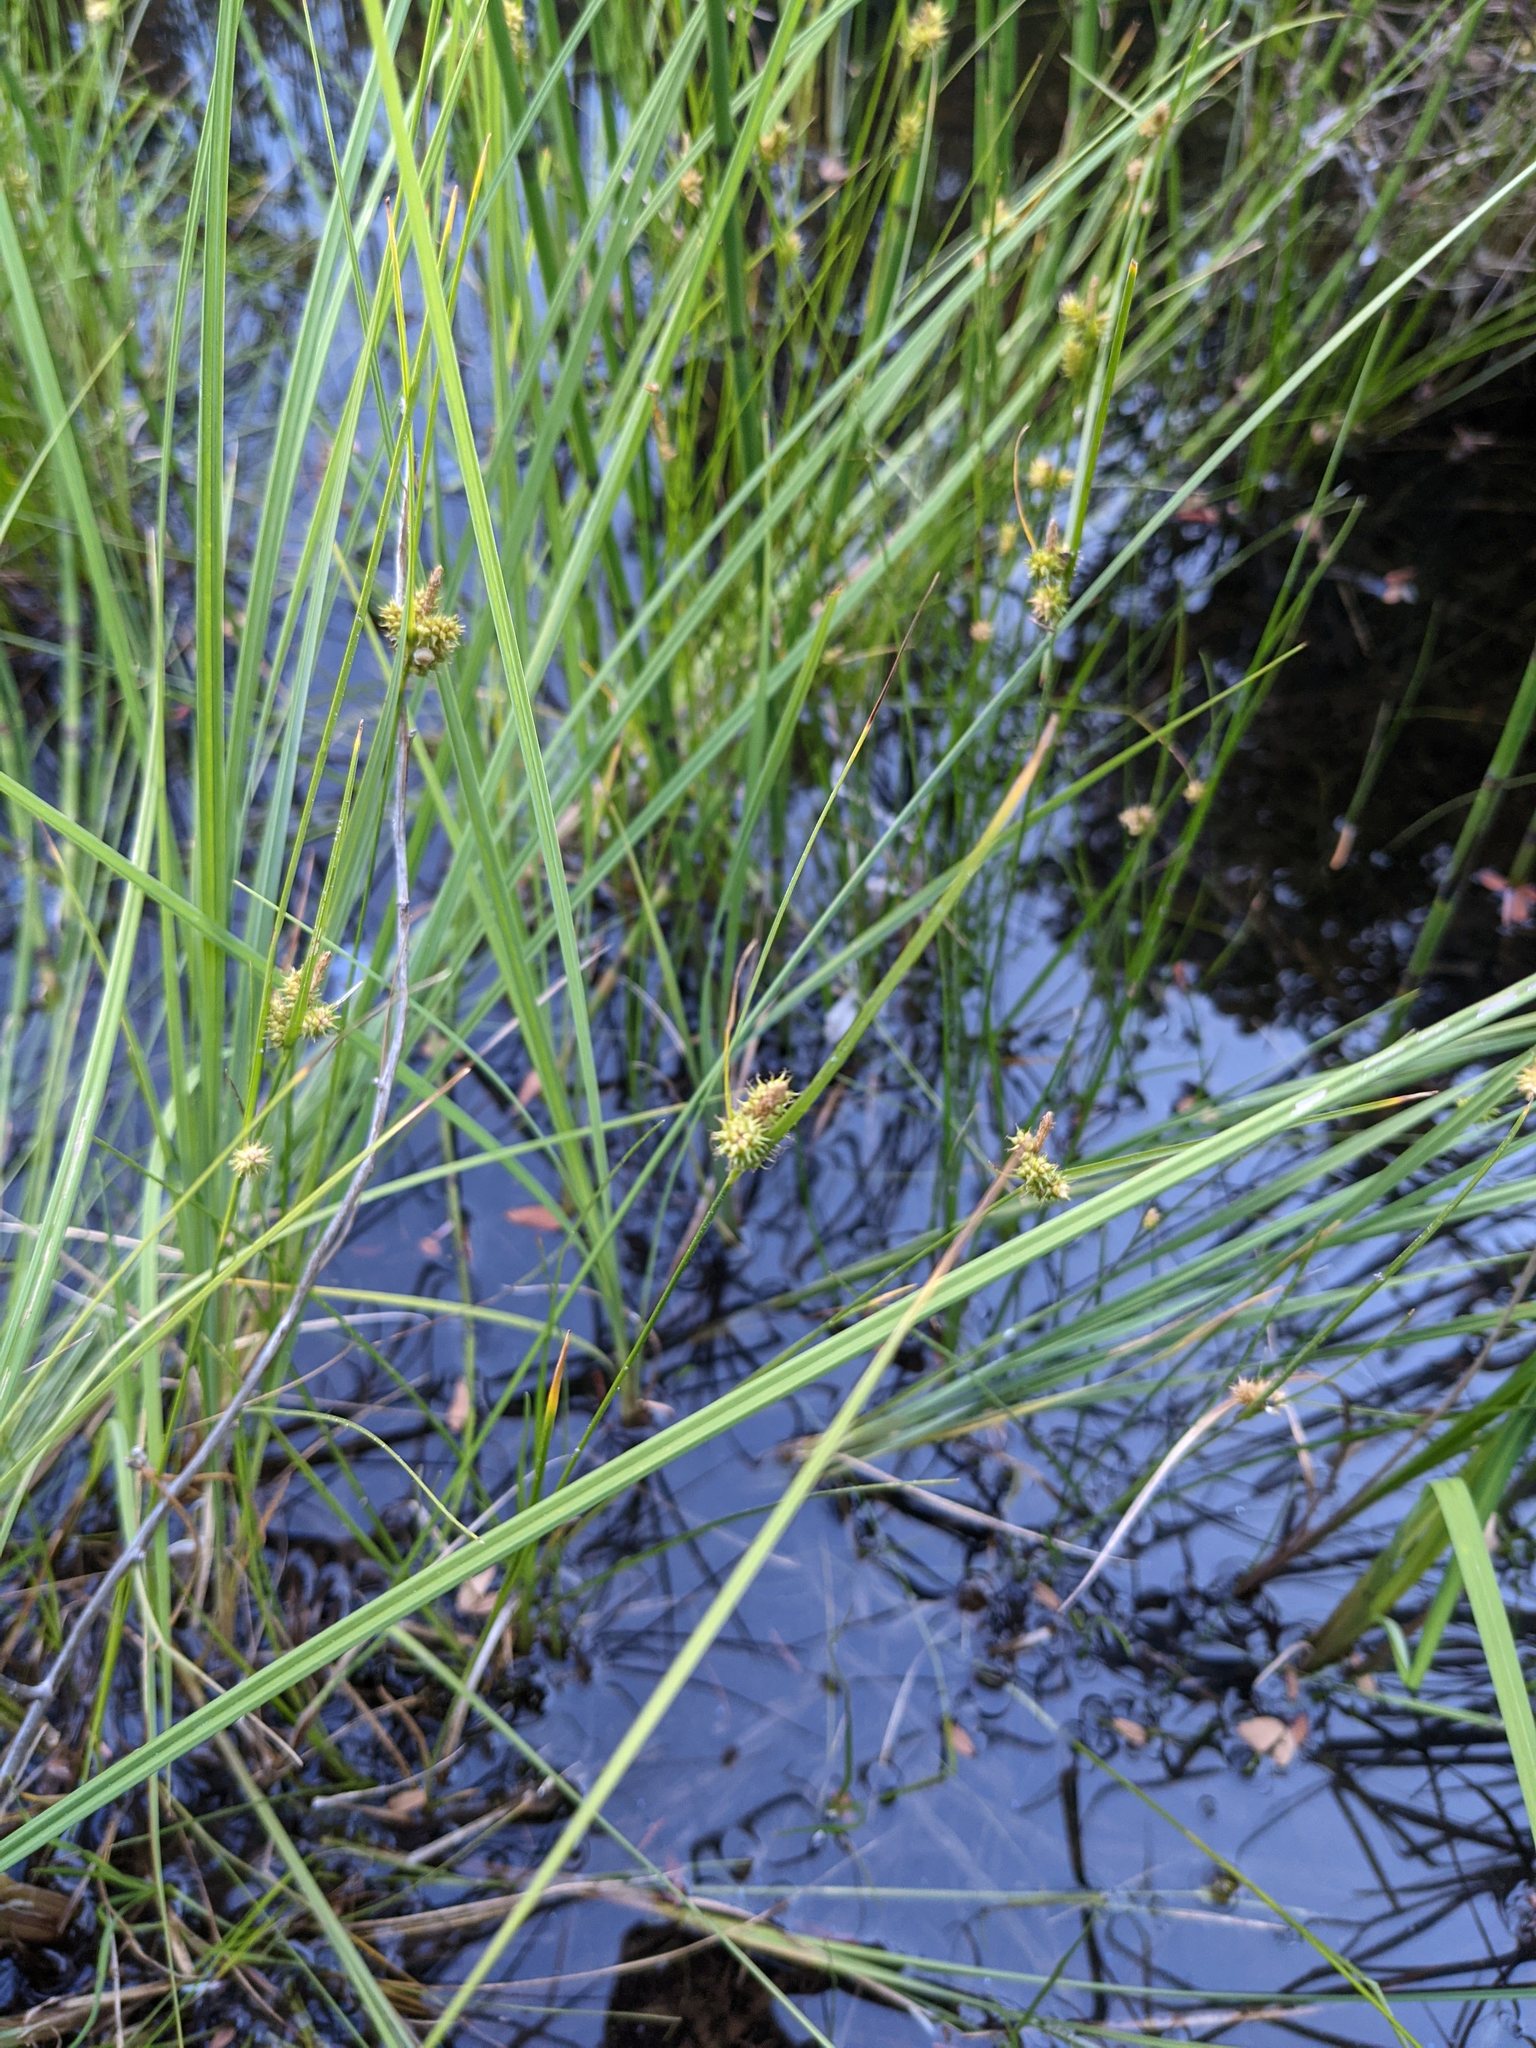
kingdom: Plantae
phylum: Tracheophyta
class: Liliopsida
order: Poales
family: Cyperaceae
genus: Carex
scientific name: Carex
